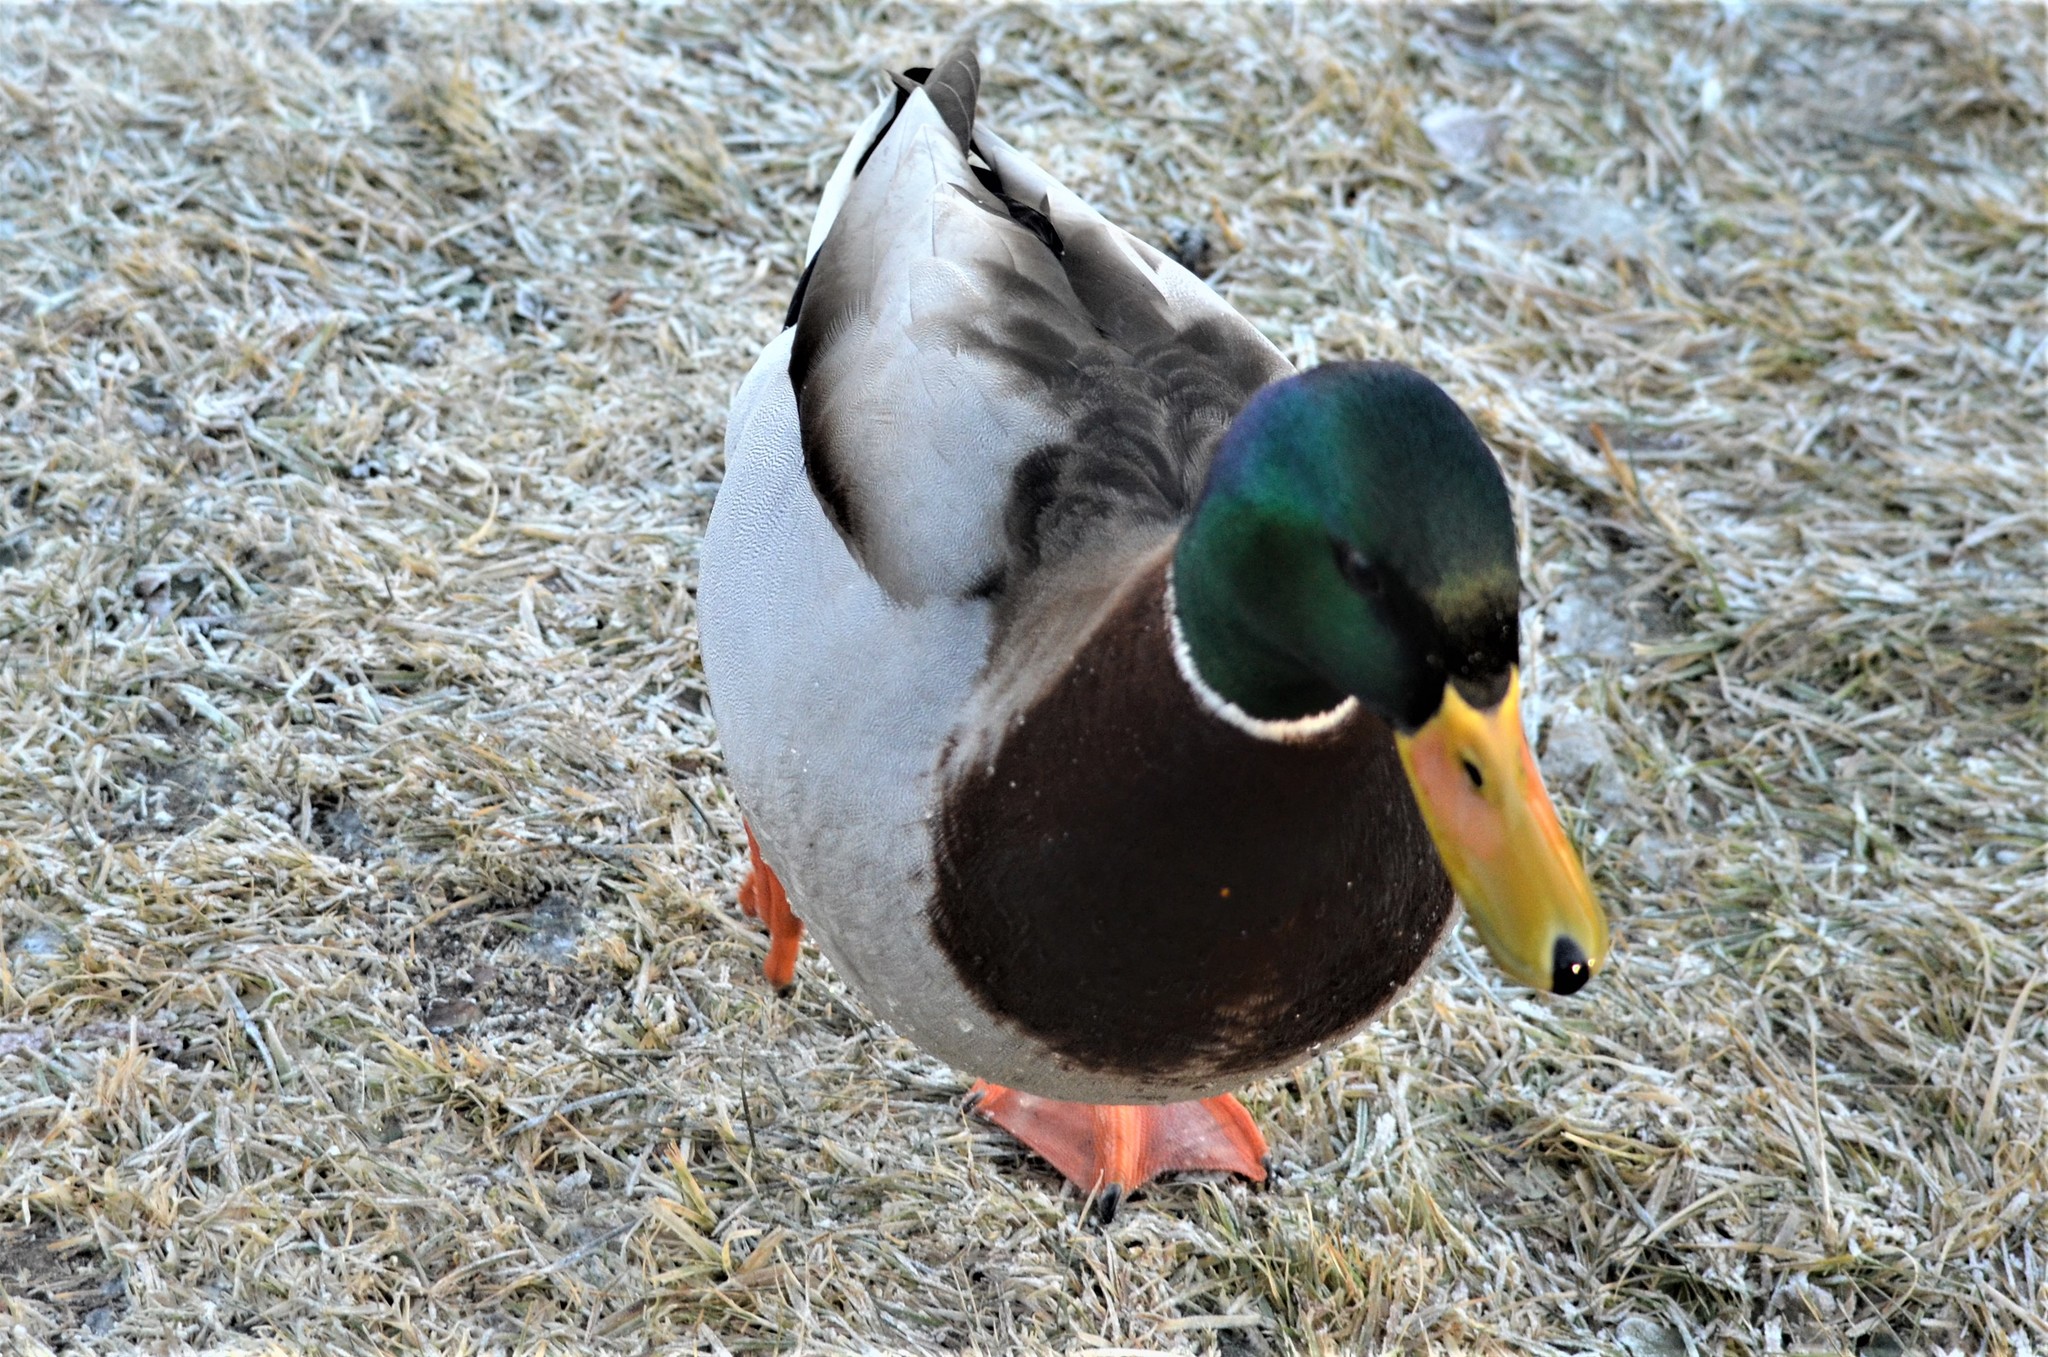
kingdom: Animalia
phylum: Chordata
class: Aves
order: Anseriformes
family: Anatidae
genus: Anas
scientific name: Anas platyrhynchos
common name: Mallard
